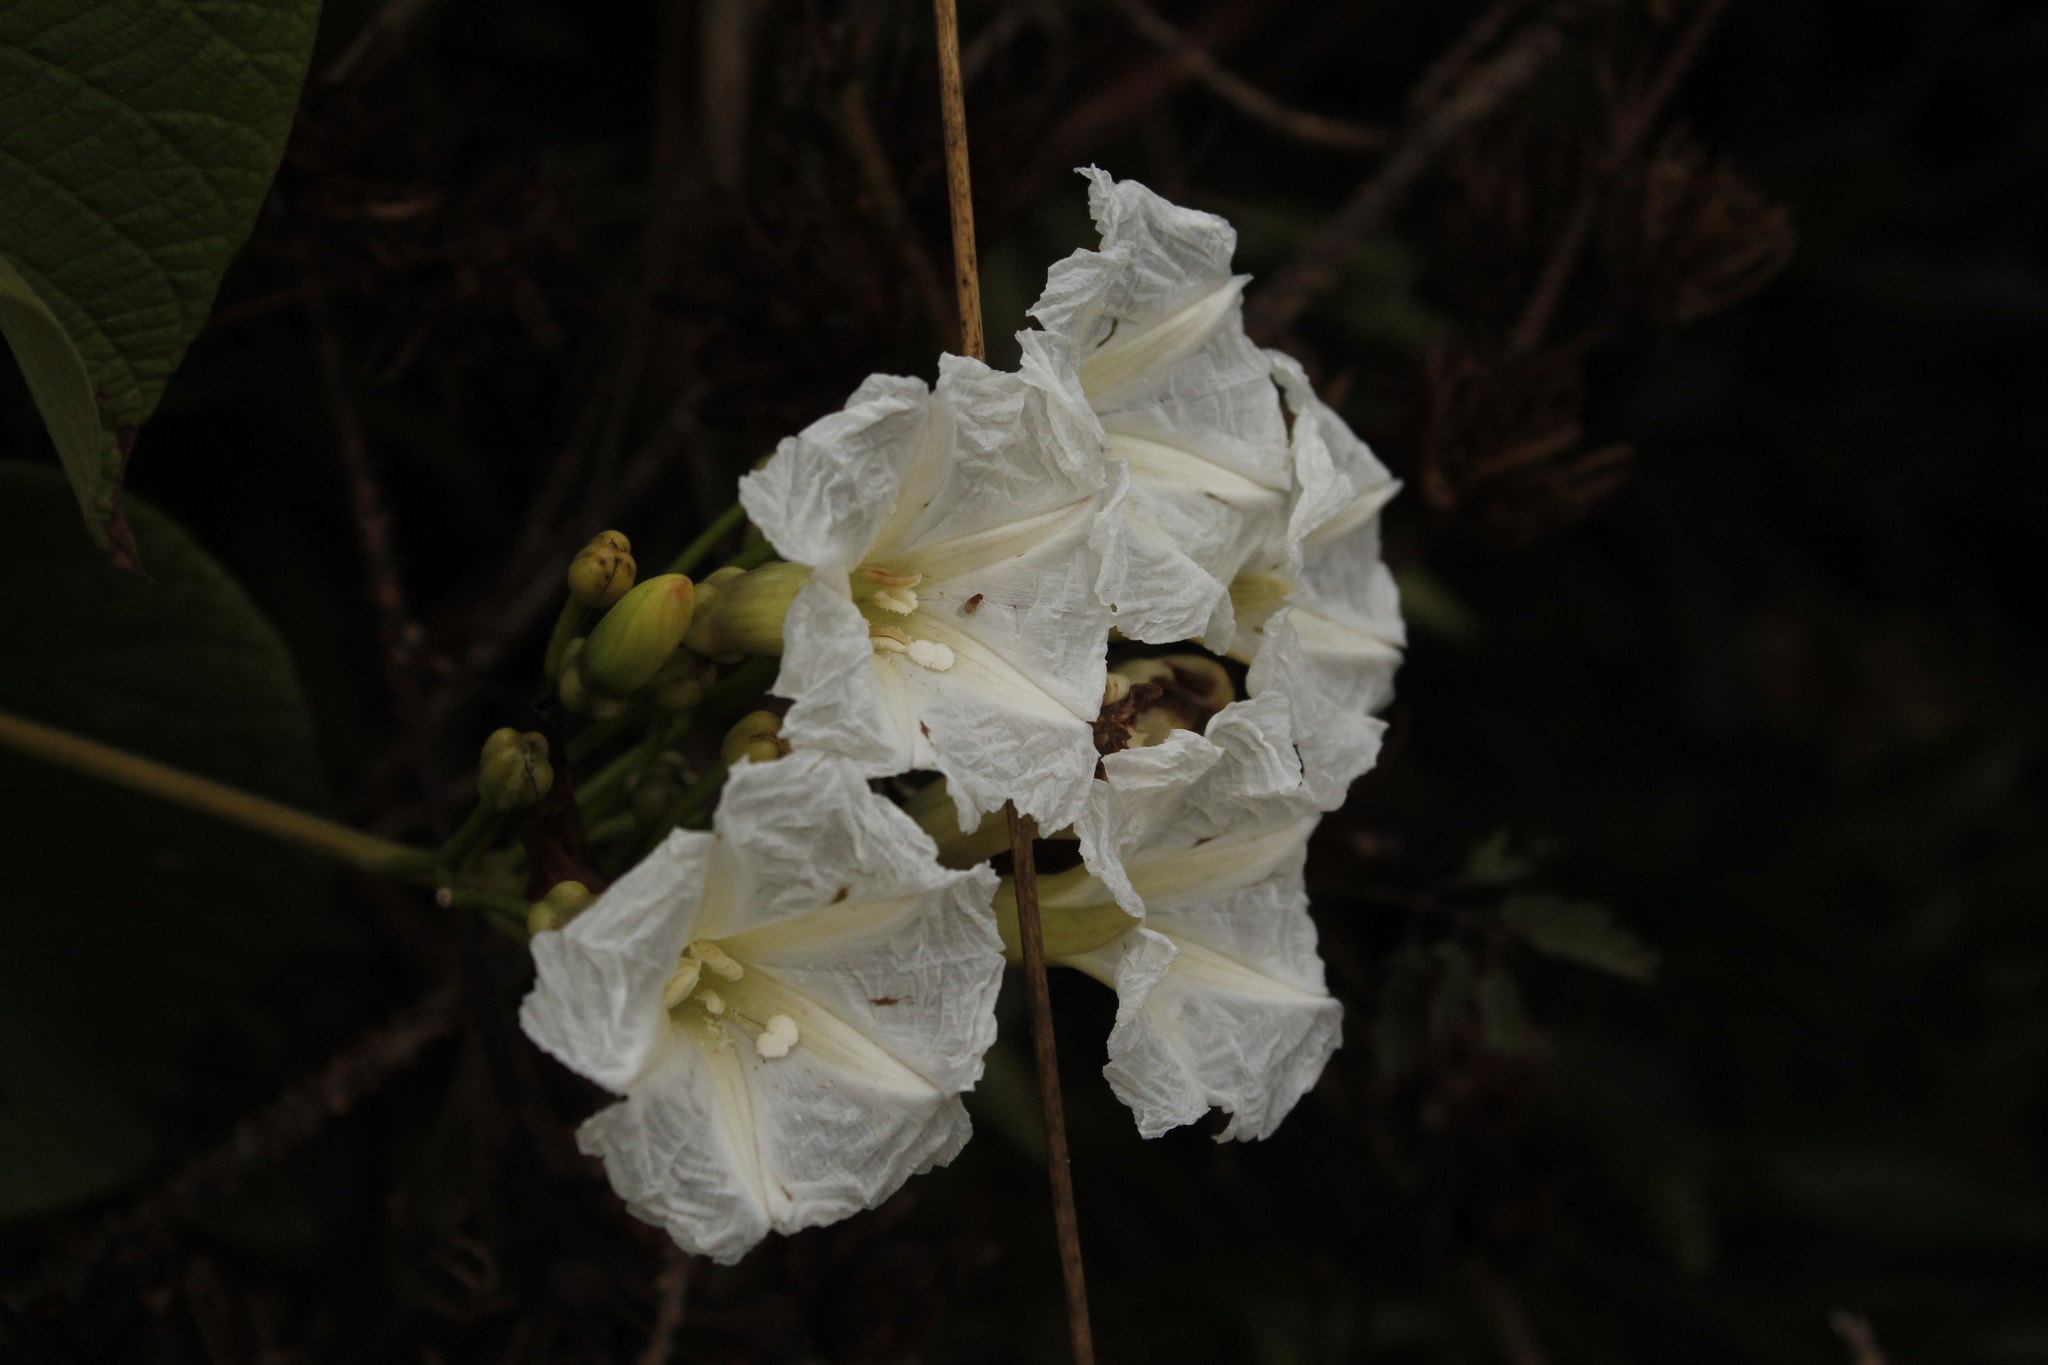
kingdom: Plantae
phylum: Tracheophyta
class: Magnoliopsida
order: Solanales
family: Convolvulaceae
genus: Ipomoea
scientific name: Ipomoea saopaulista
